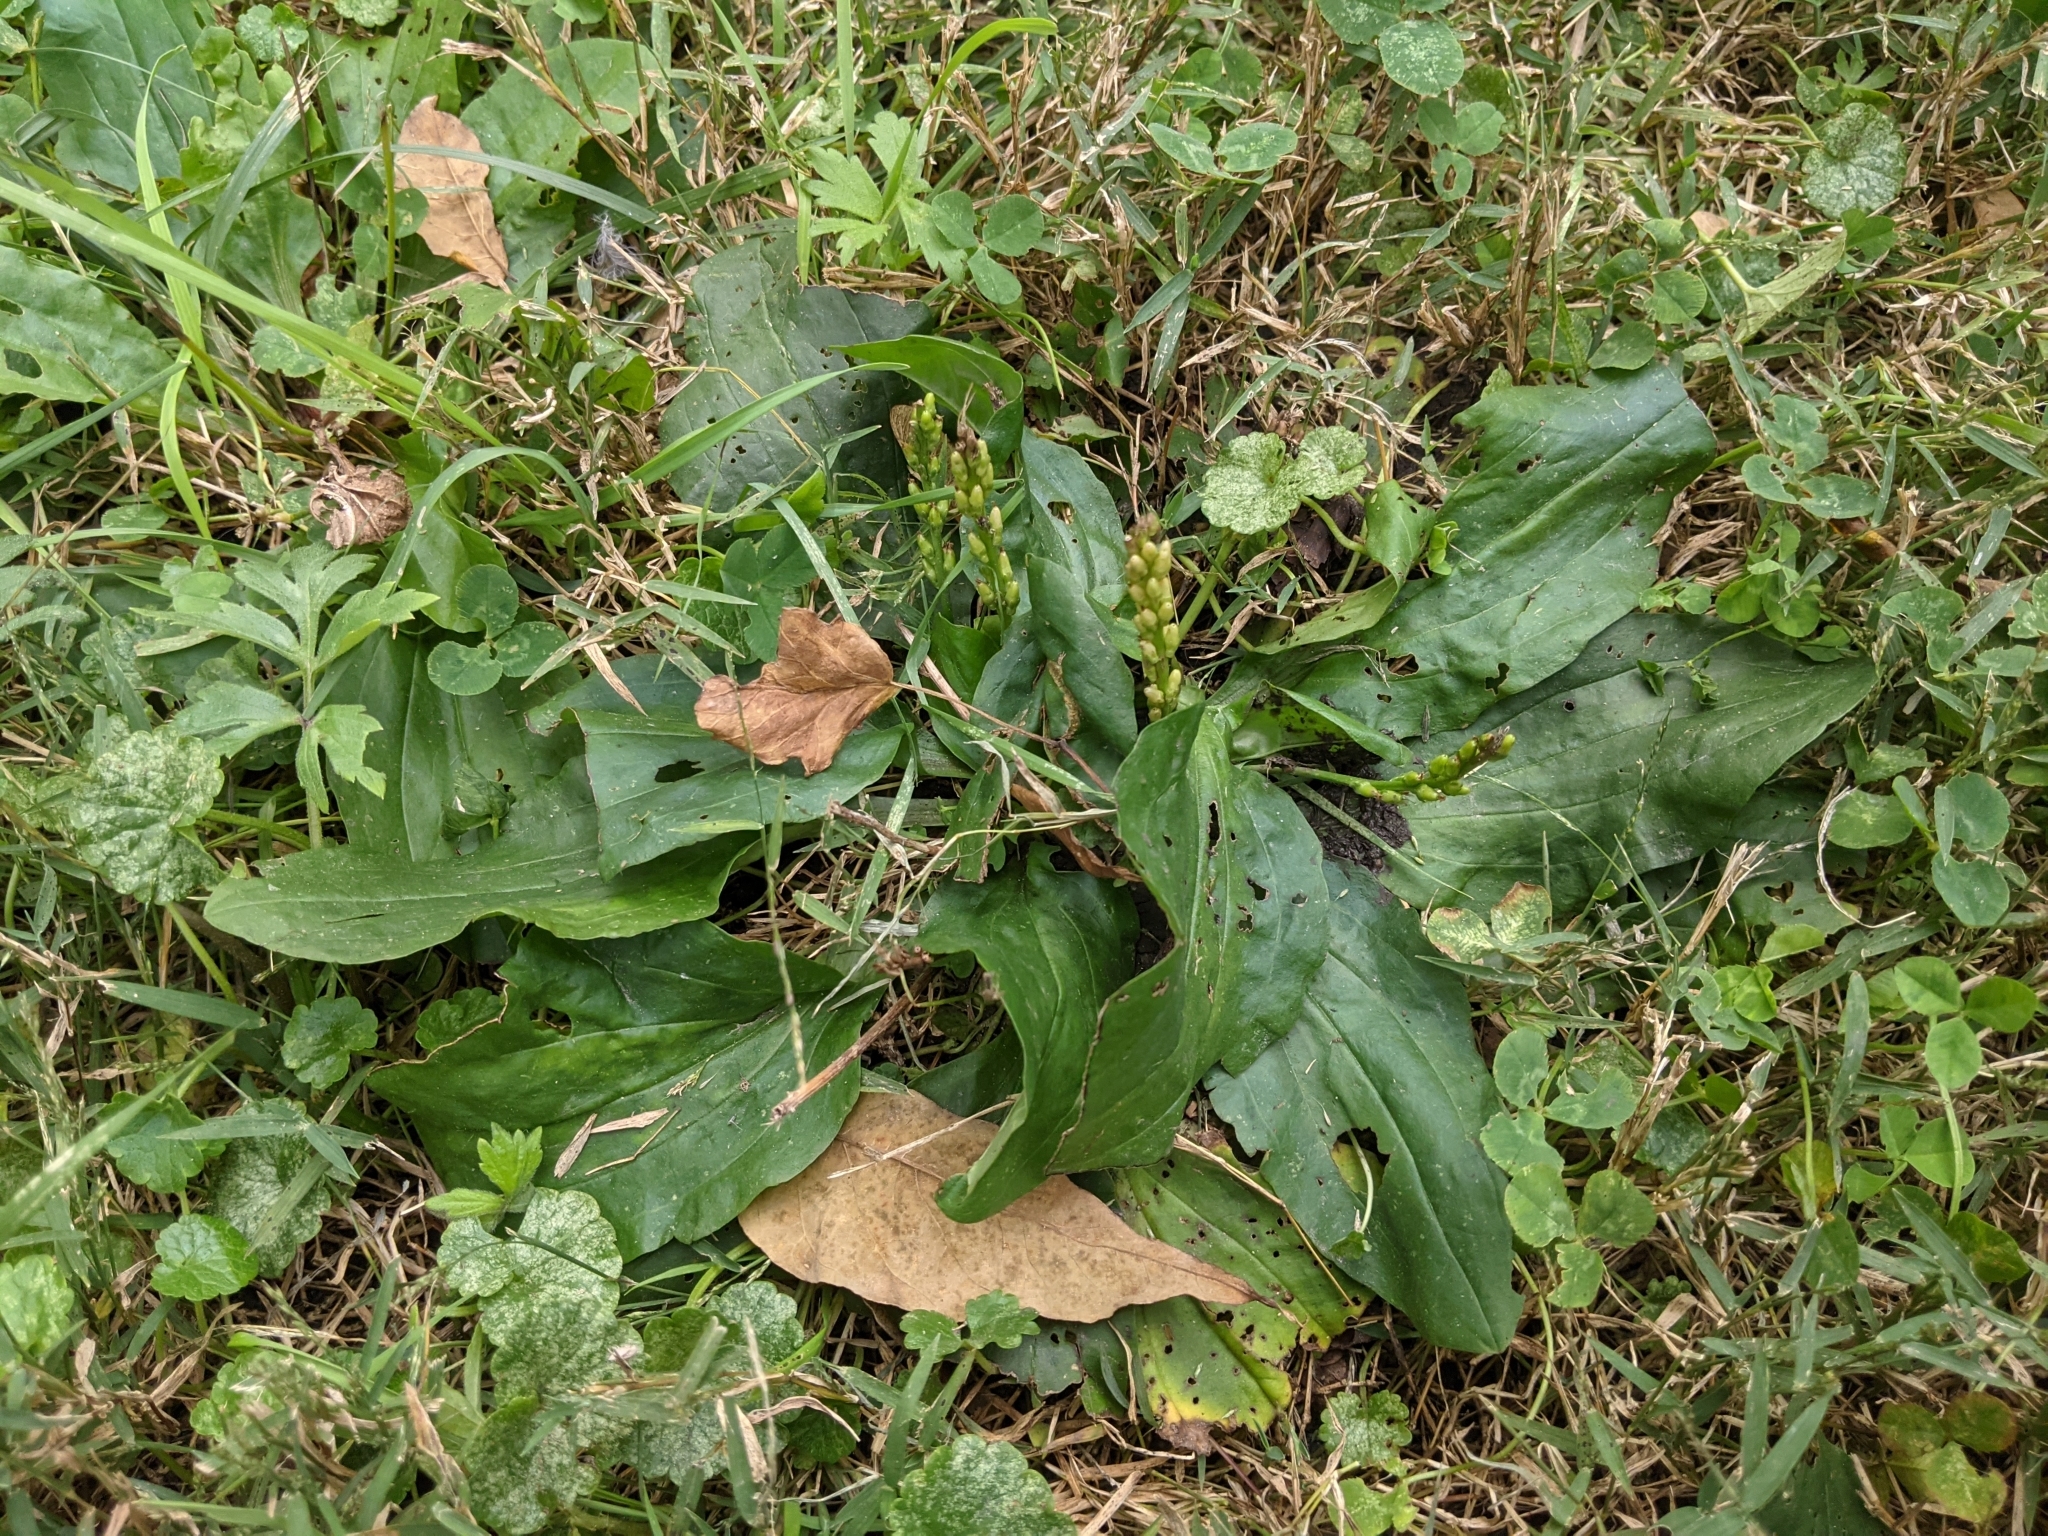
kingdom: Plantae
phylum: Tracheophyta
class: Magnoliopsida
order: Lamiales
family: Plantaginaceae
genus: Plantago
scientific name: Plantago rugelii
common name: American plantain
